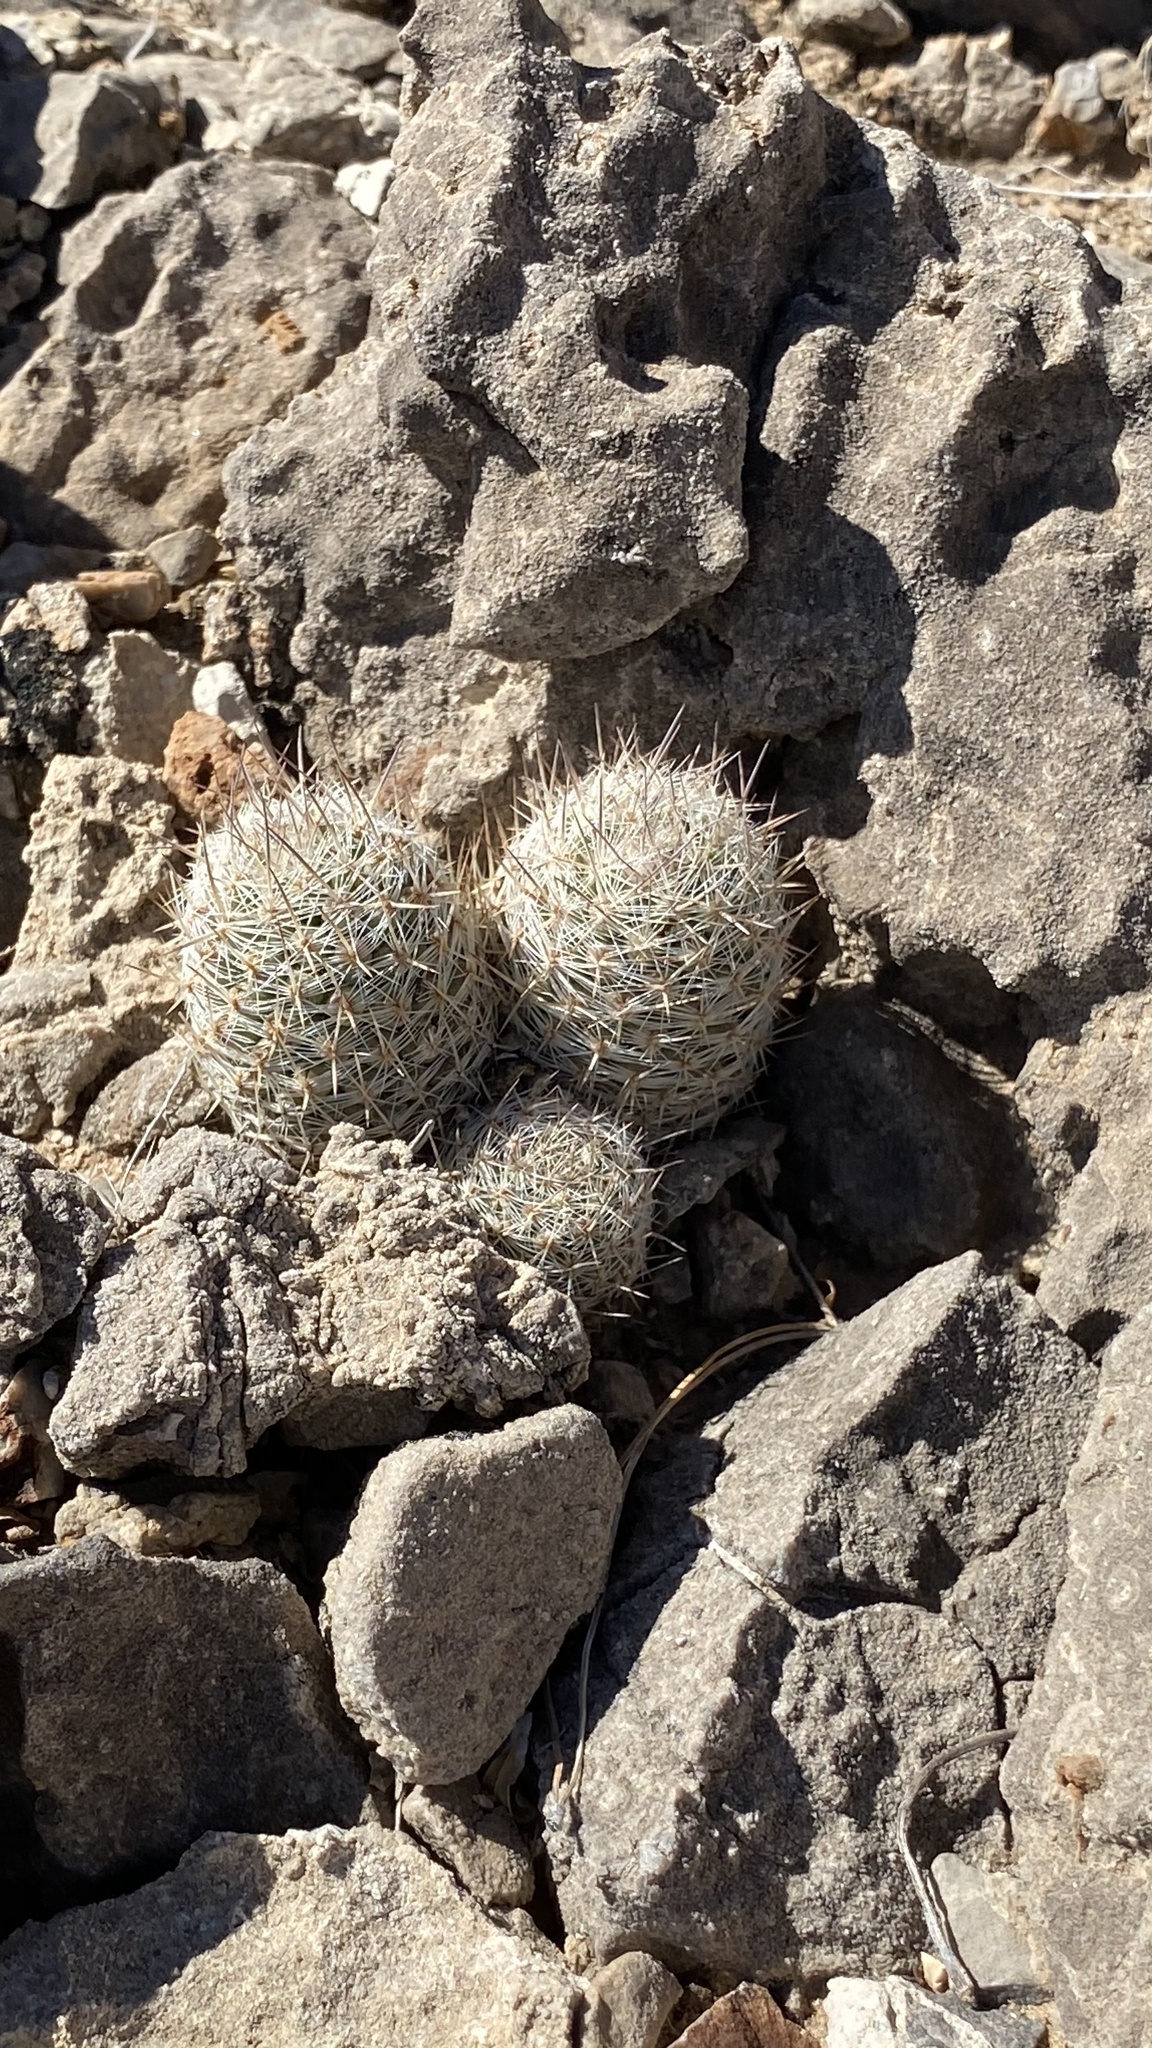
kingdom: Plantae
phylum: Tracheophyta
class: Magnoliopsida
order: Caryophyllales
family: Cactaceae
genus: Pelecyphora
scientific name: Pelecyphora tuberculosa
